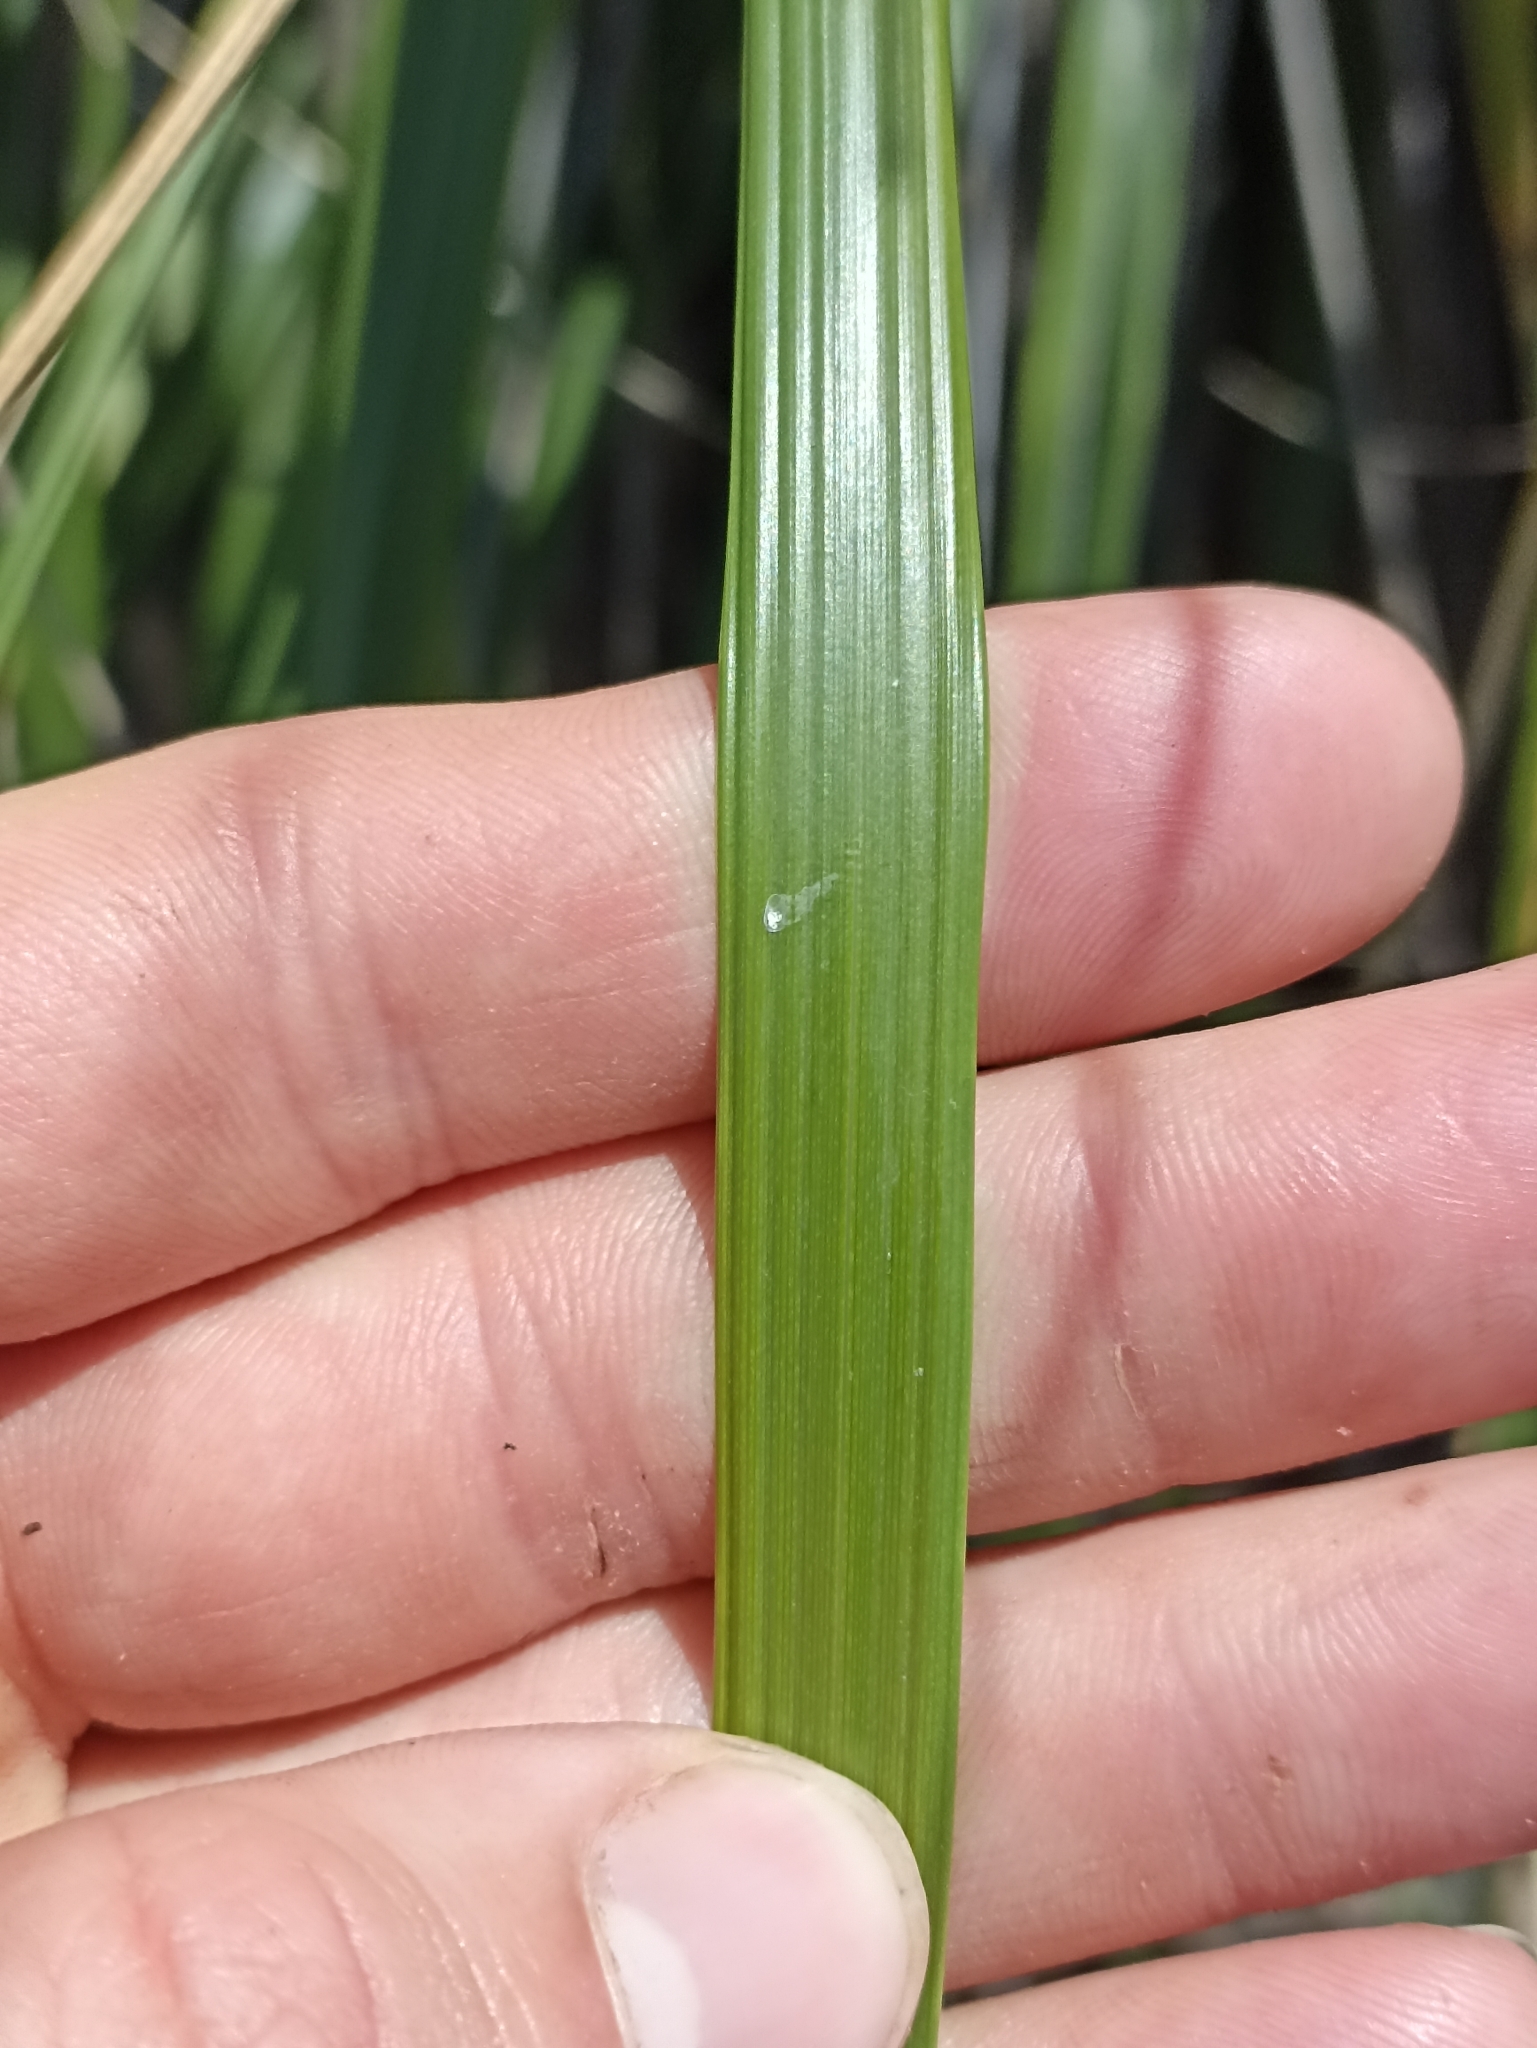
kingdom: Plantae
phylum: Tracheophyta
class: Liliopsida
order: Poales
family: Poaceae
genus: Austroderia
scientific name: Austroderia splendens
